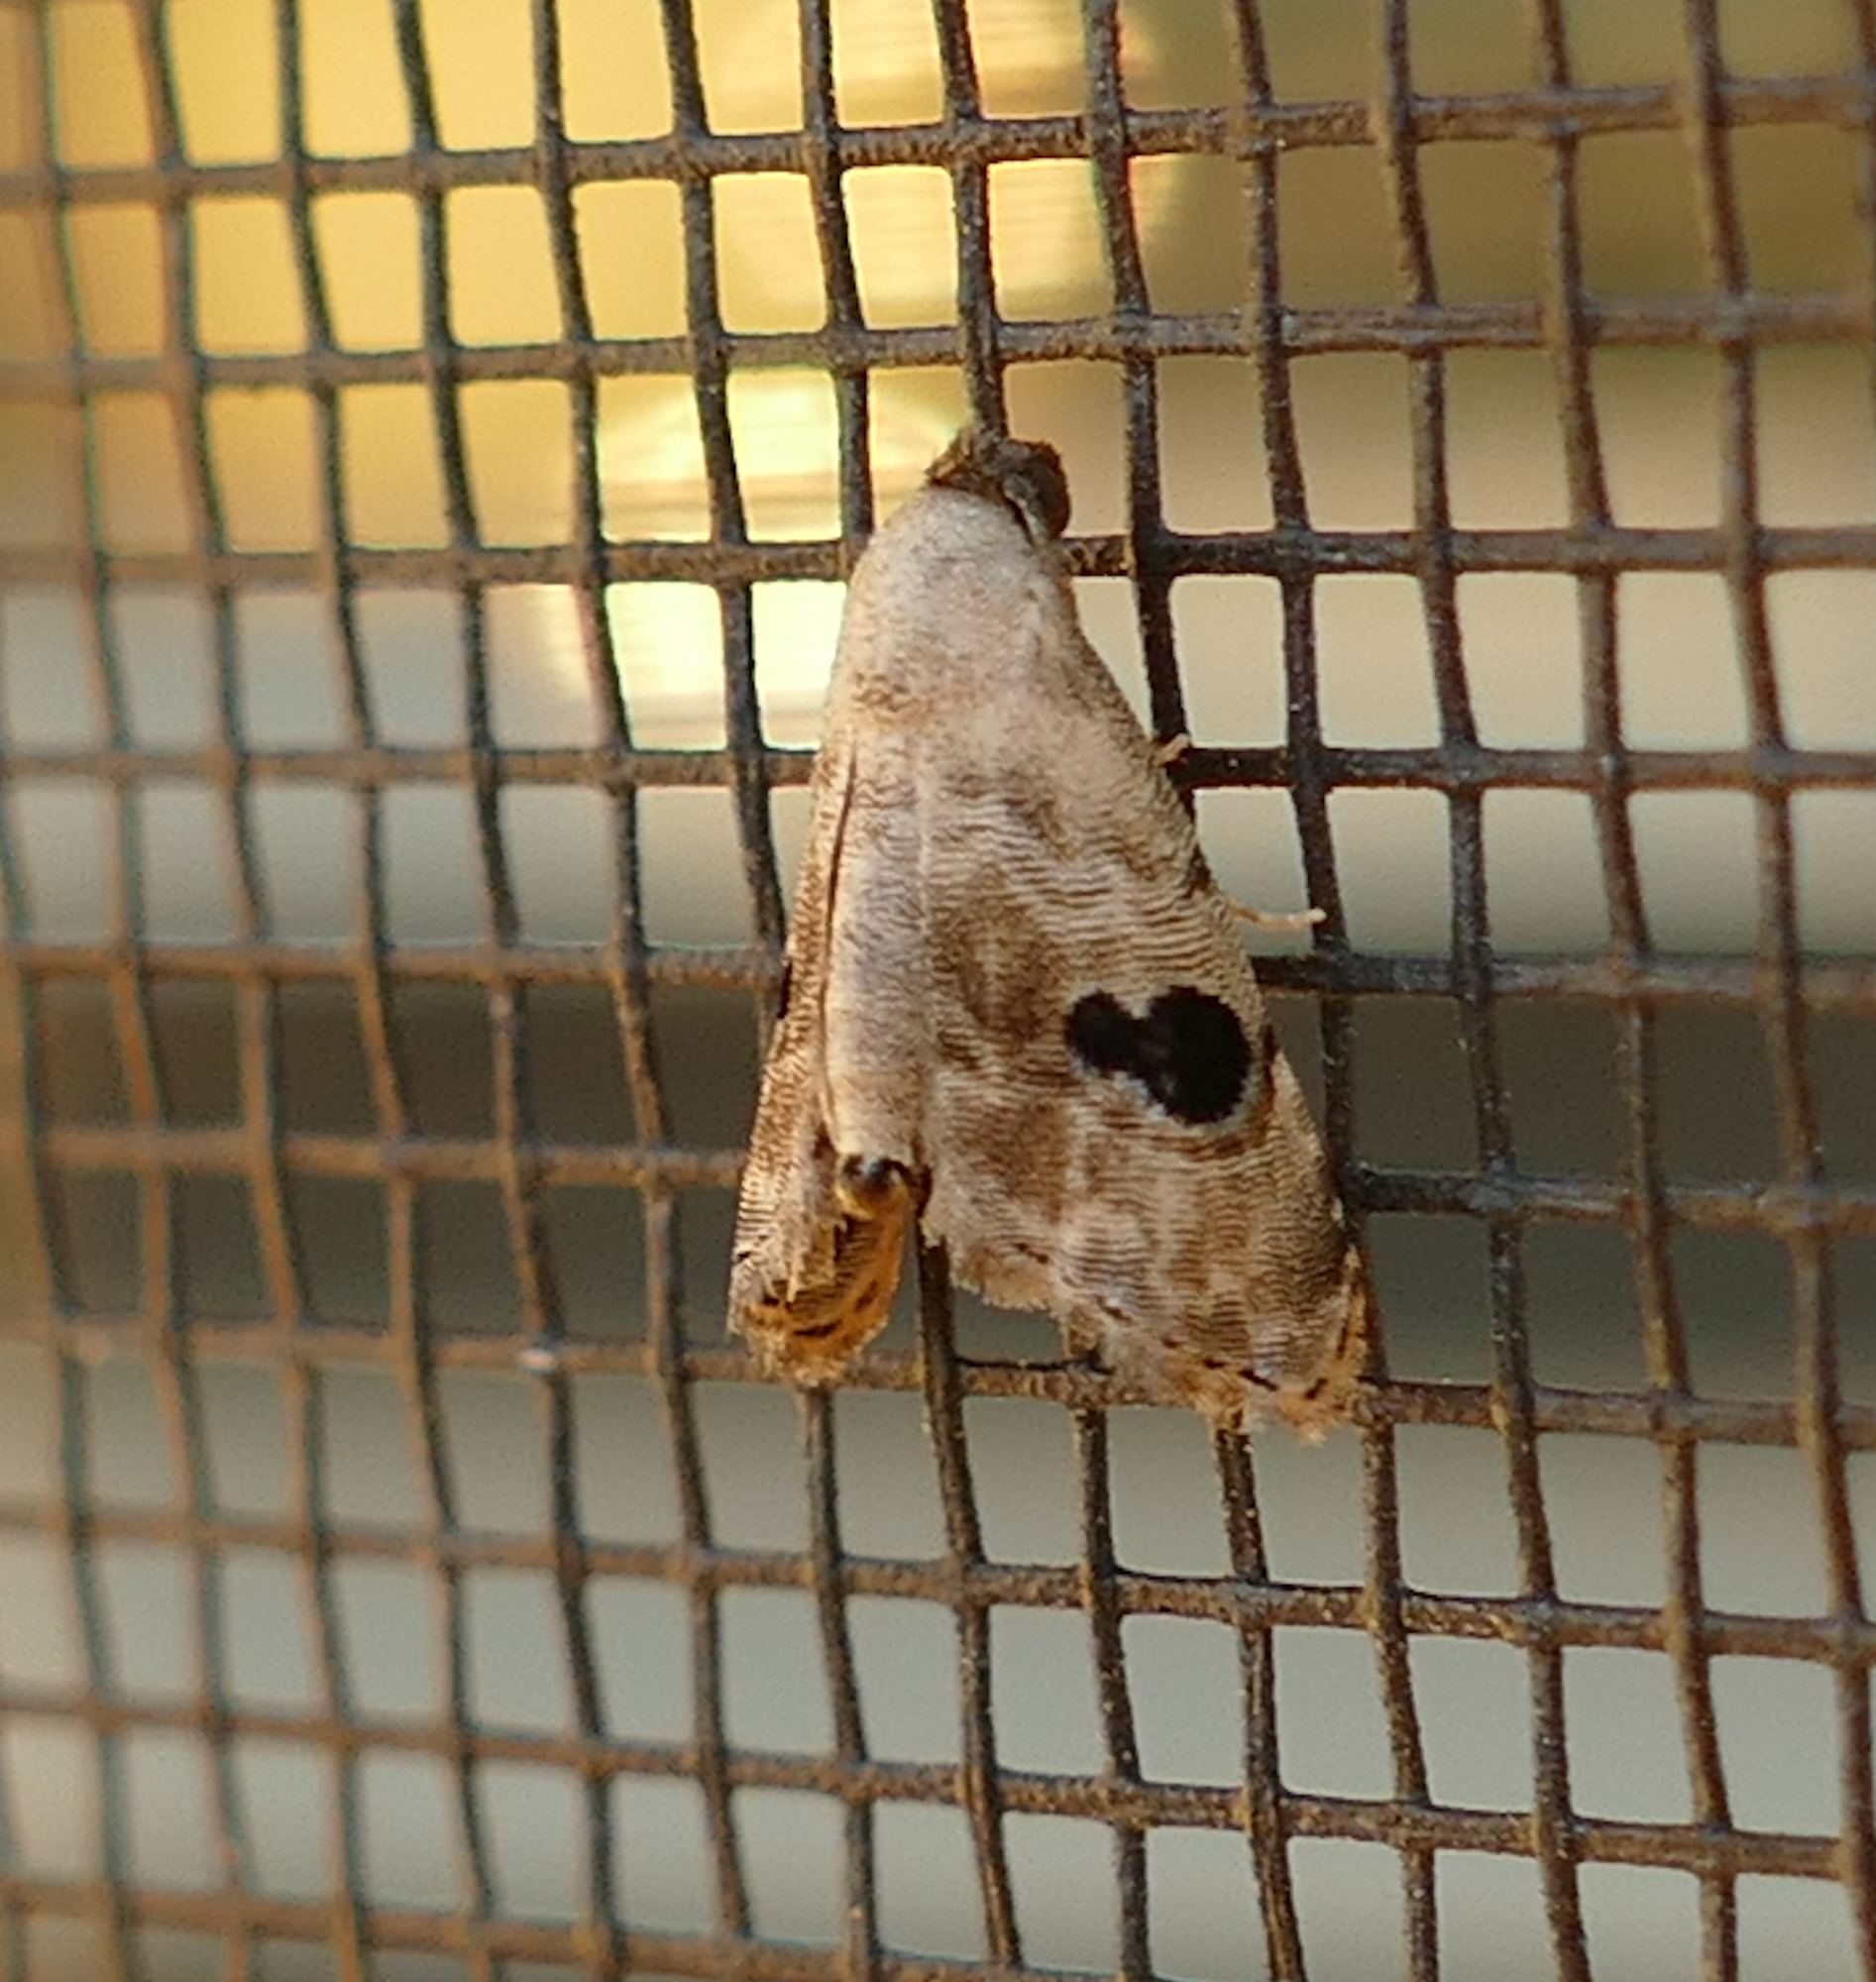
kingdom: Animalia
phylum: Arthropoda
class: Insecta
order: Lepidoptera
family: Noctuidae
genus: Abablemma
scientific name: Abablemma duomaculata
